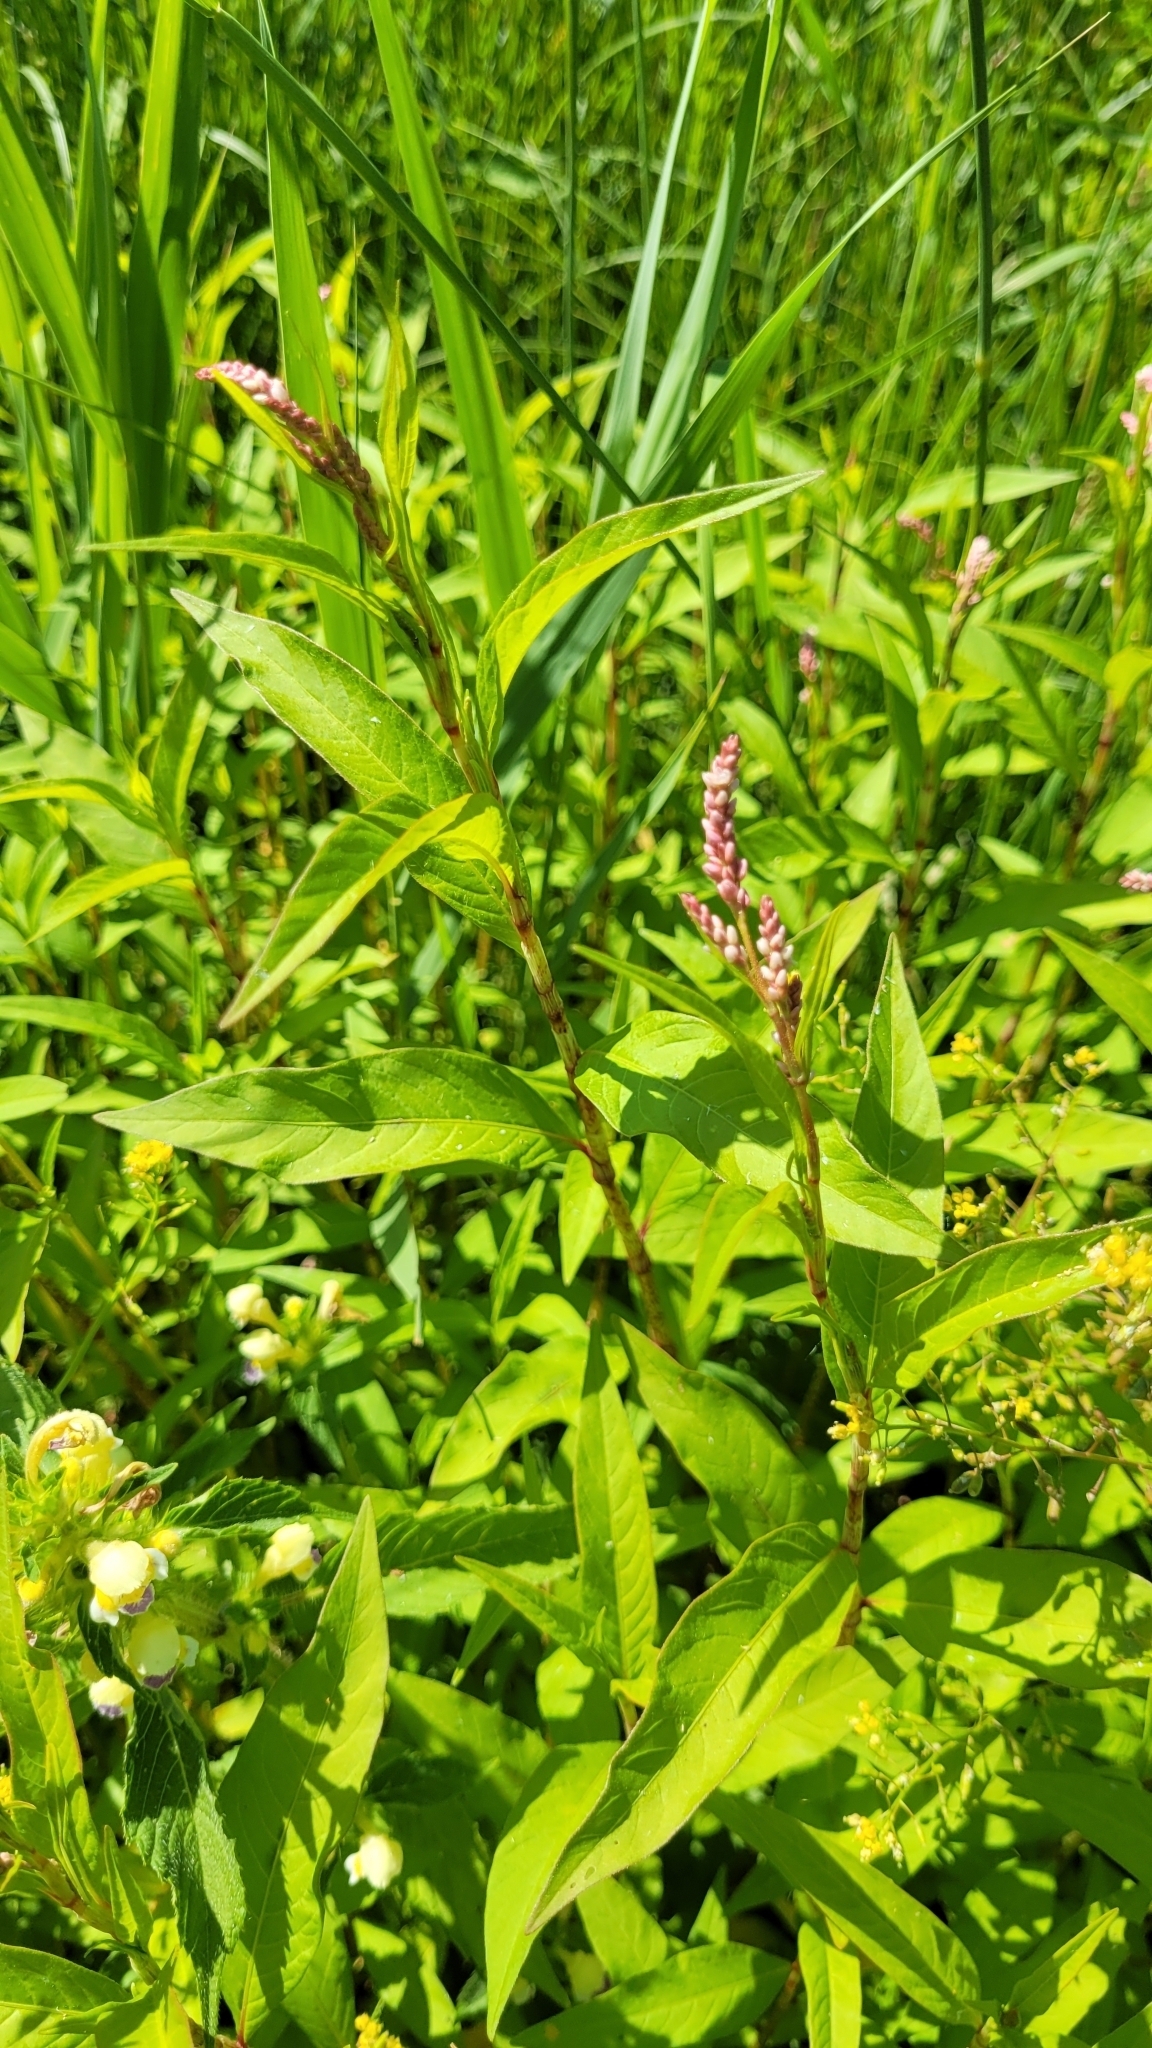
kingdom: Plantae
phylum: Tracheophyta
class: Magnoliopsida
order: Caryophyllales
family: Polygonaceae
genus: Persicaria
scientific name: Persicaria lapathifolia
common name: Curlytop knotweed
